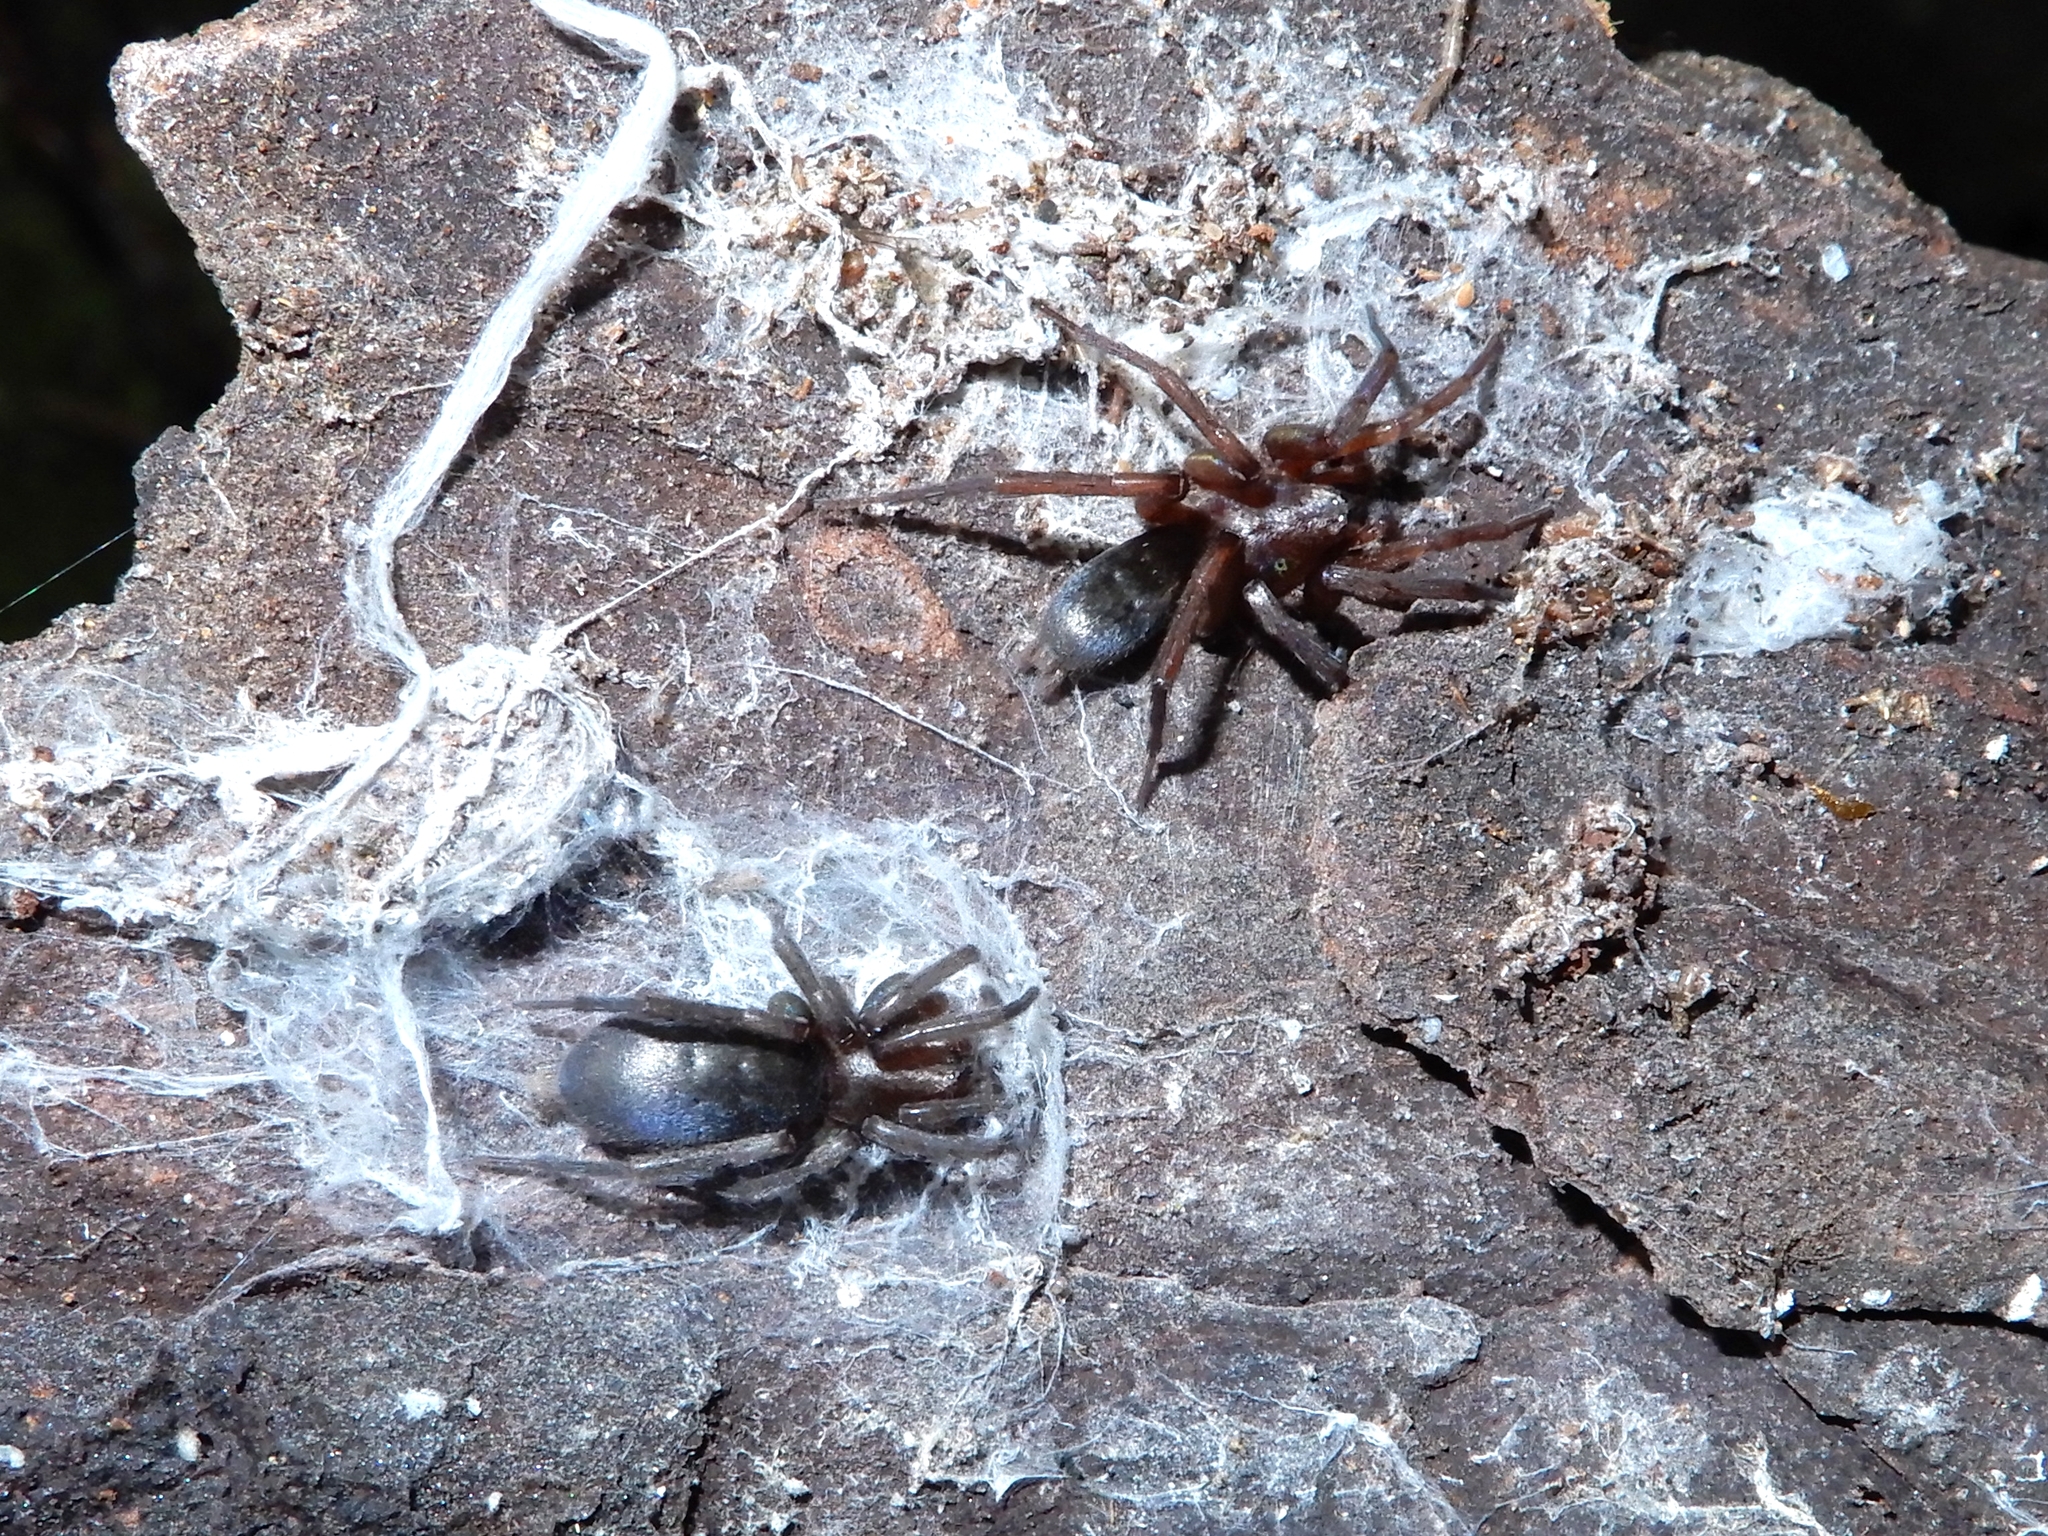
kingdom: Animalia
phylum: Arthropoda
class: Arachnida
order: Araneae
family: Gnaphosidae
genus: Hypodrassodes
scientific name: Hypodrassodes maoricus
